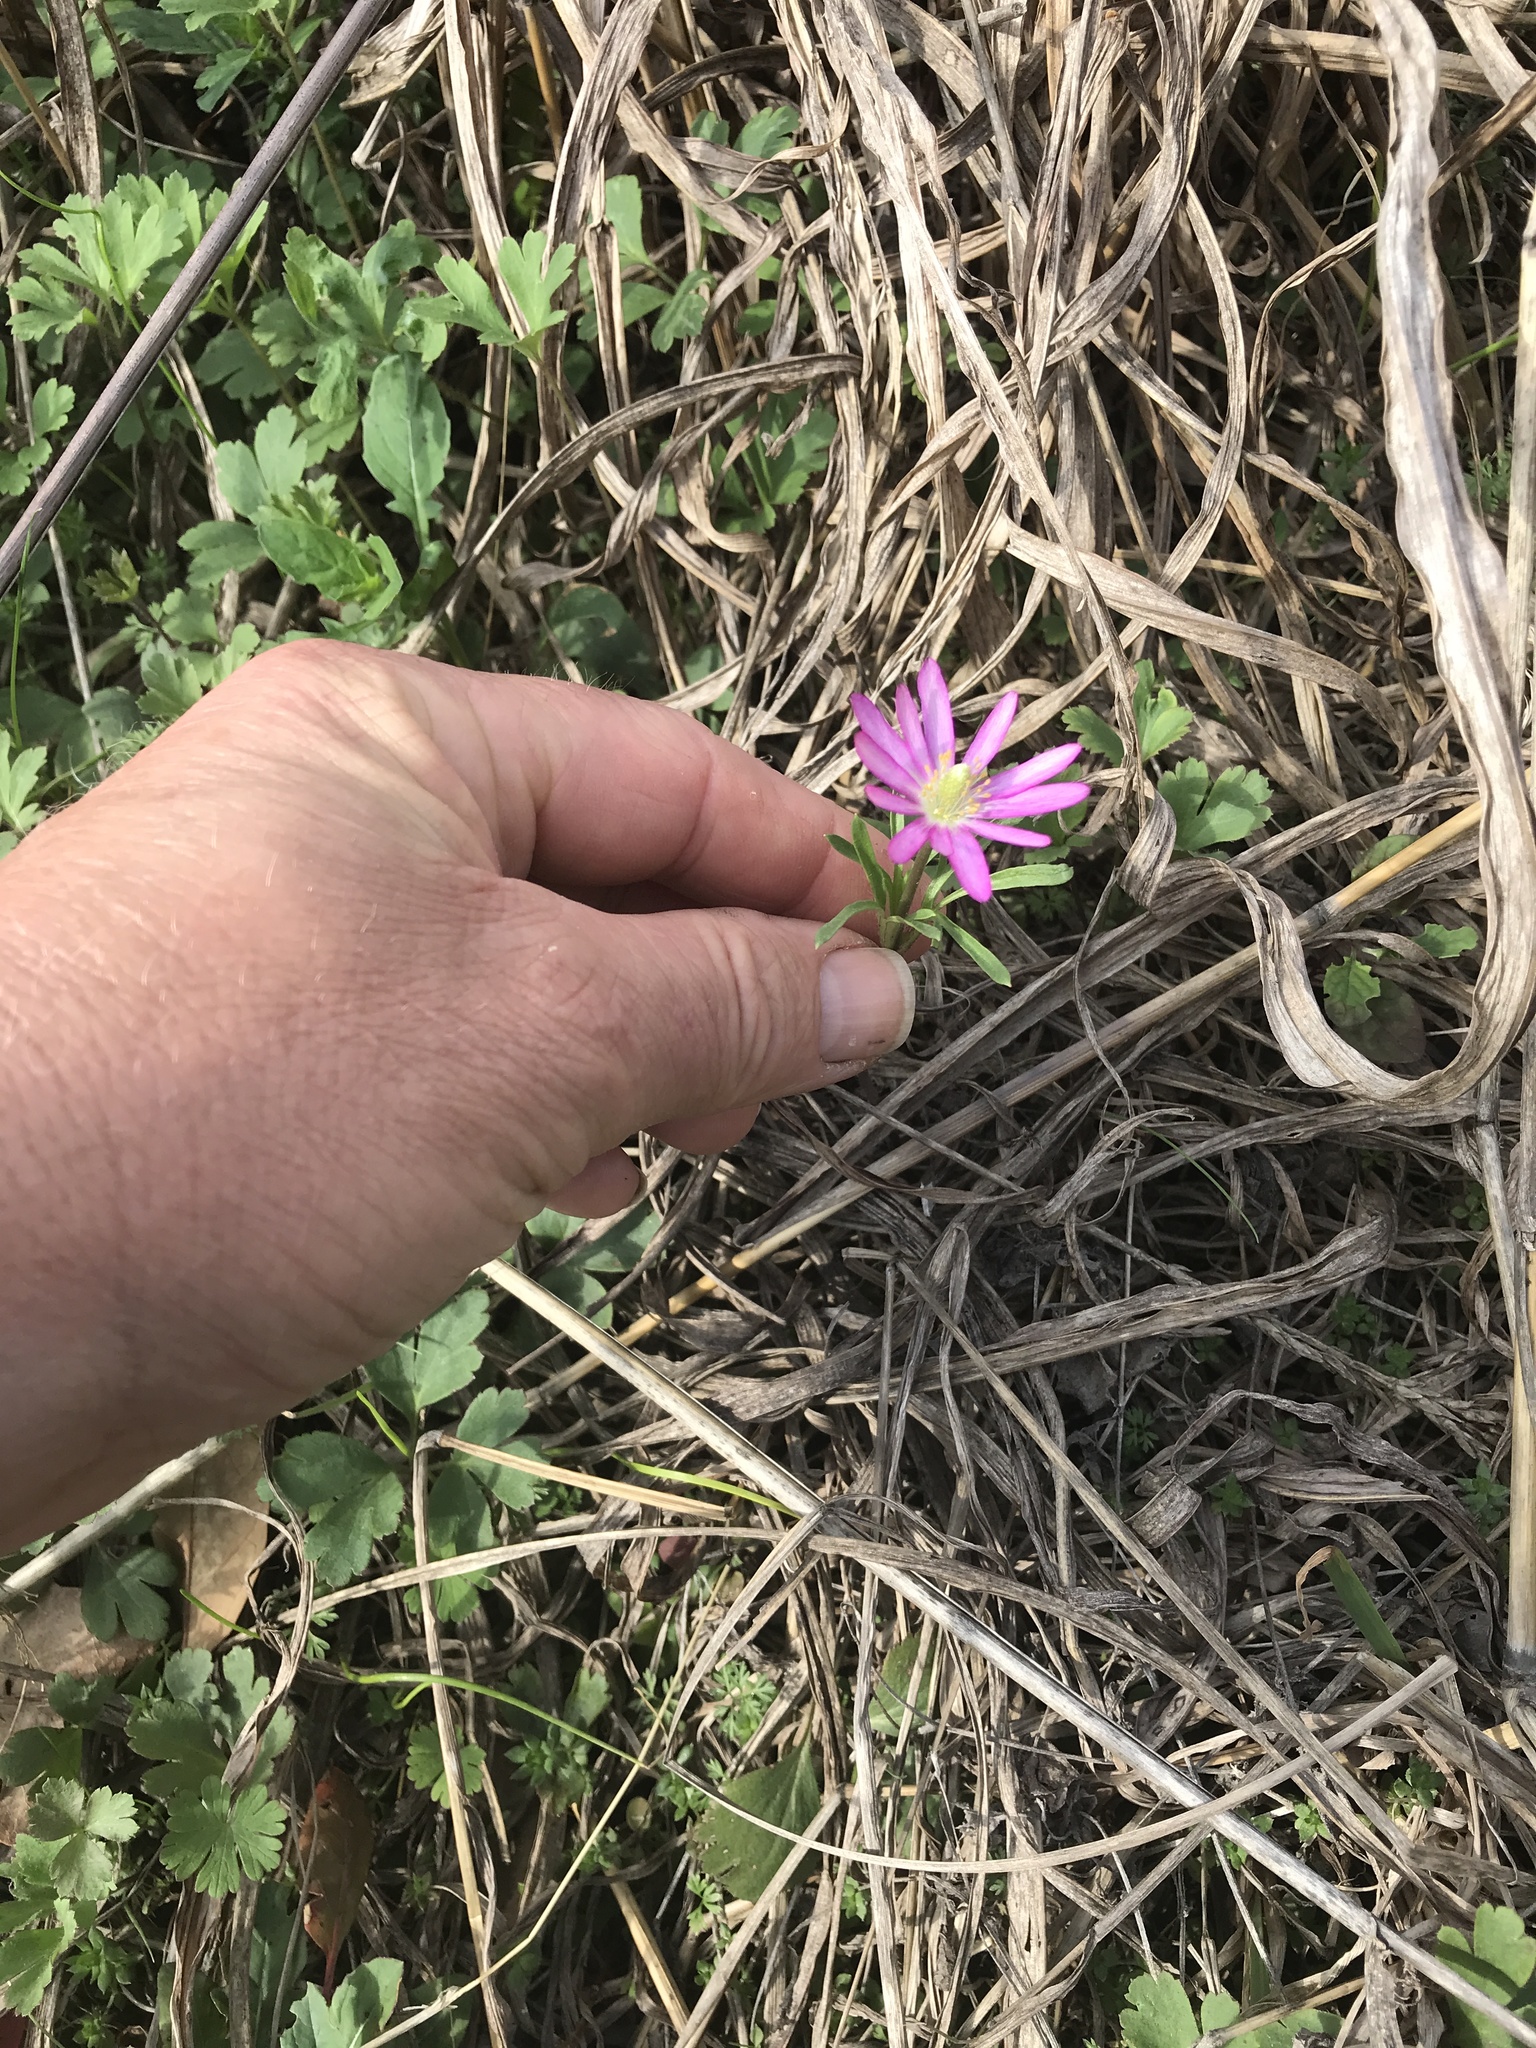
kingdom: Plantae
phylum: Tracheophyta
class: Magnoliopsida
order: Ranunculales
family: Ranunculaceae
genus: Anemone
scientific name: Anemone berlandieri
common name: Ten-petal anemone
